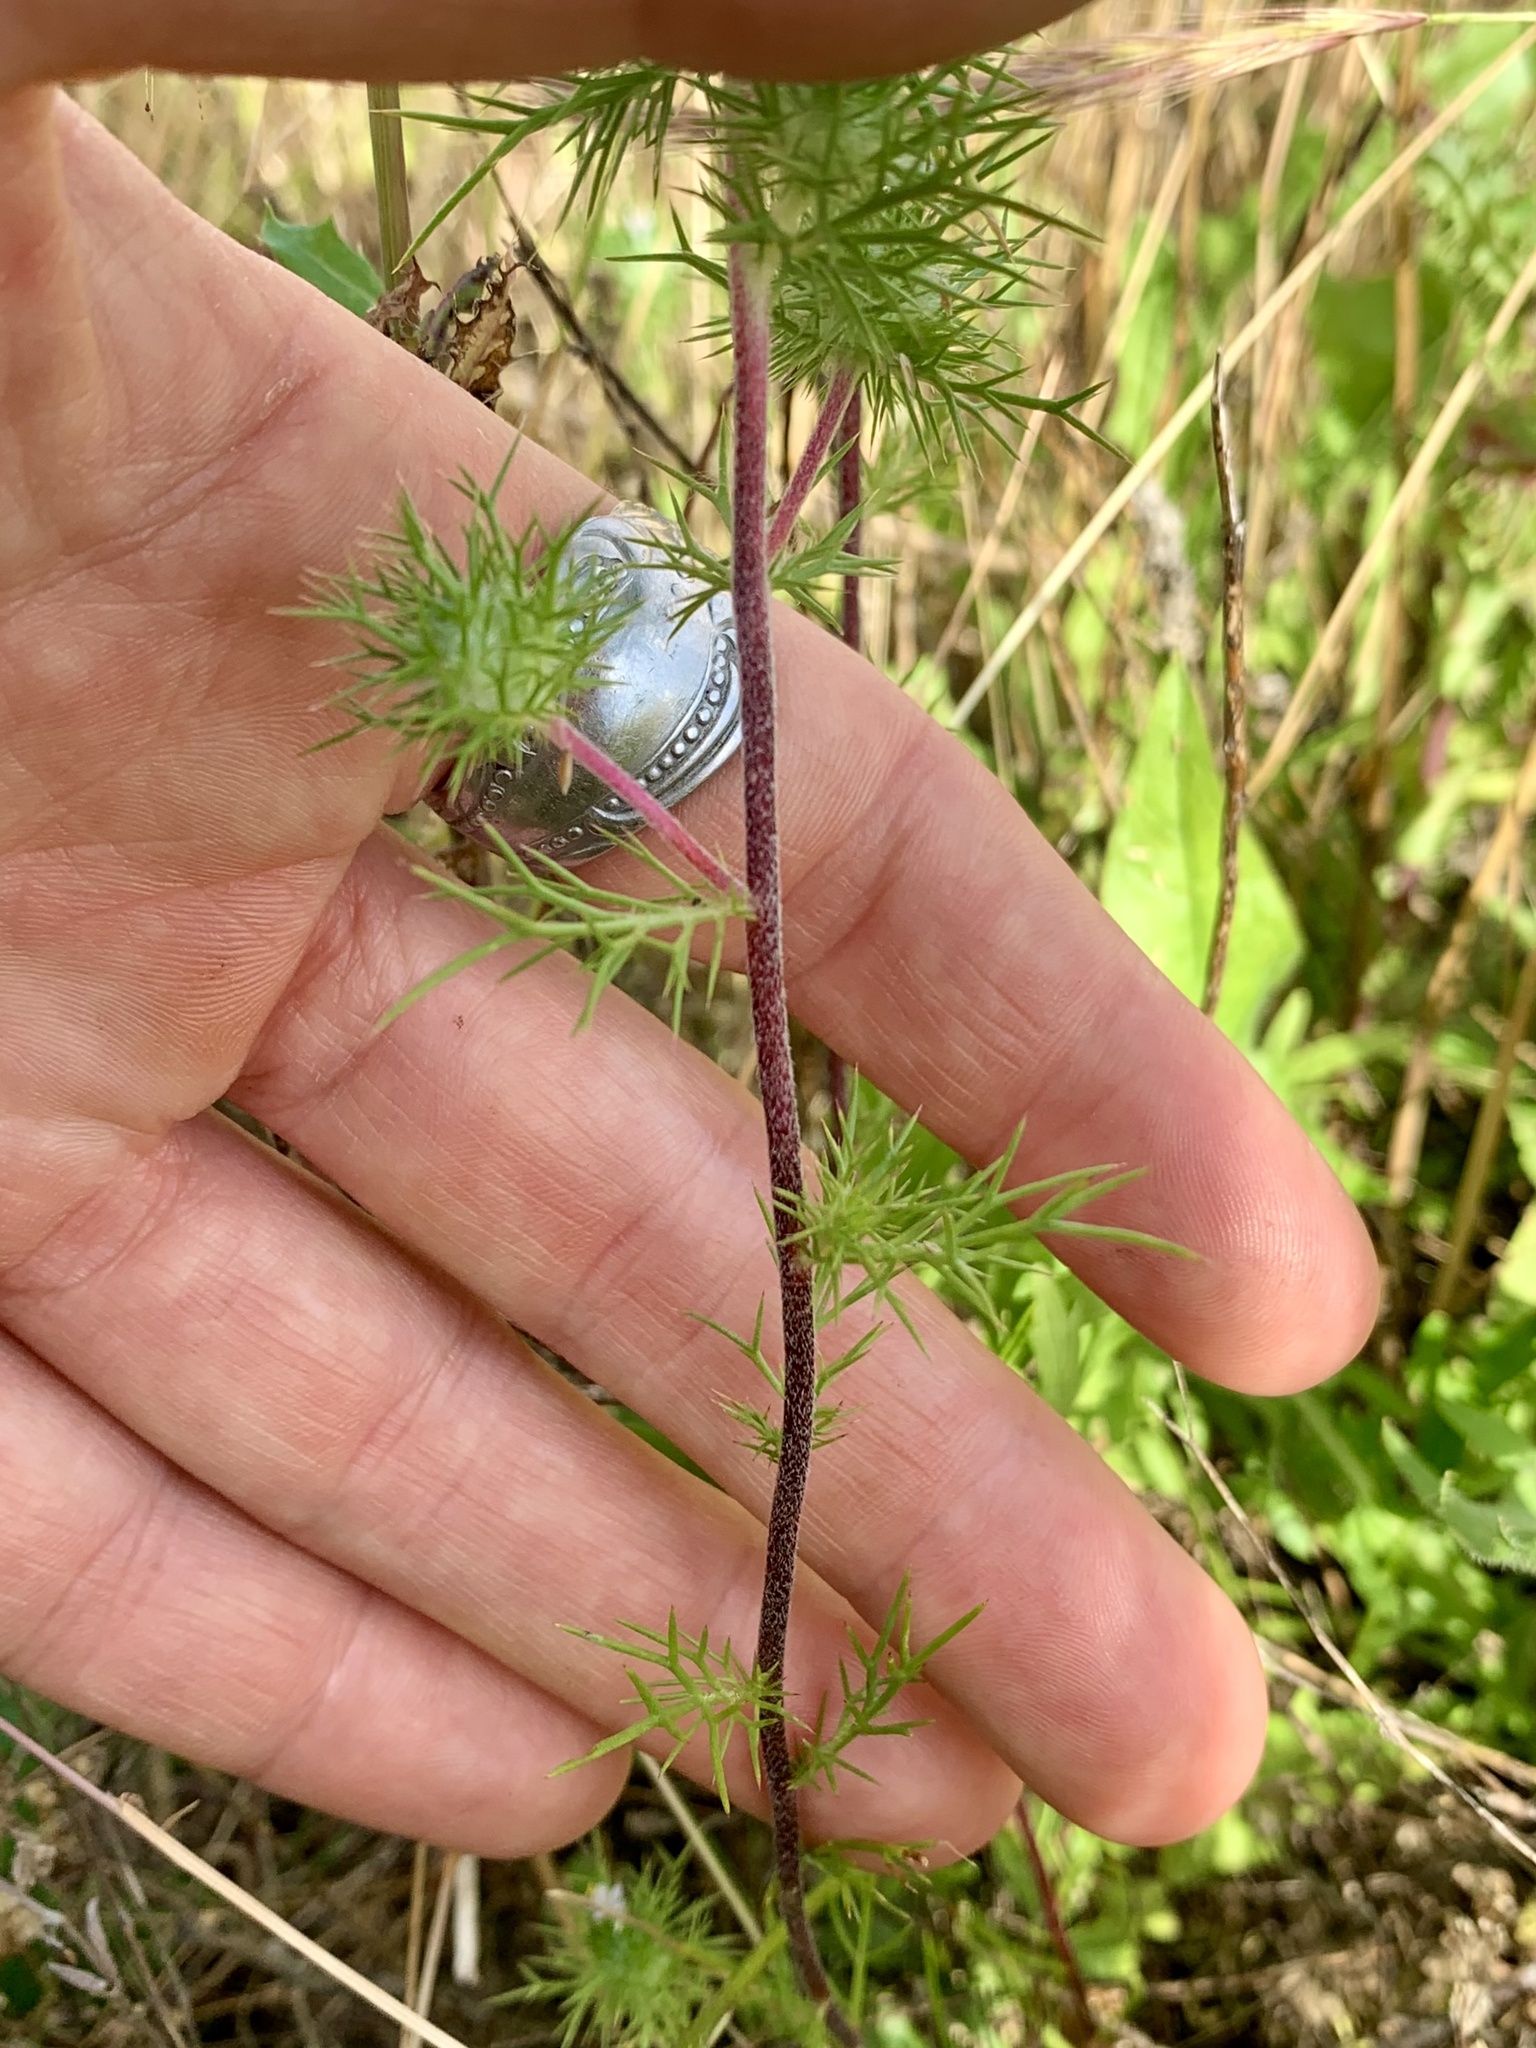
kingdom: Plantae
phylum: Tracheophyta
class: Magnoliopsida
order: Ericales
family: Polemoniaceae
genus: Navarretia
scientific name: Navarretia intertexta
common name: Needle-leaved navarretia
